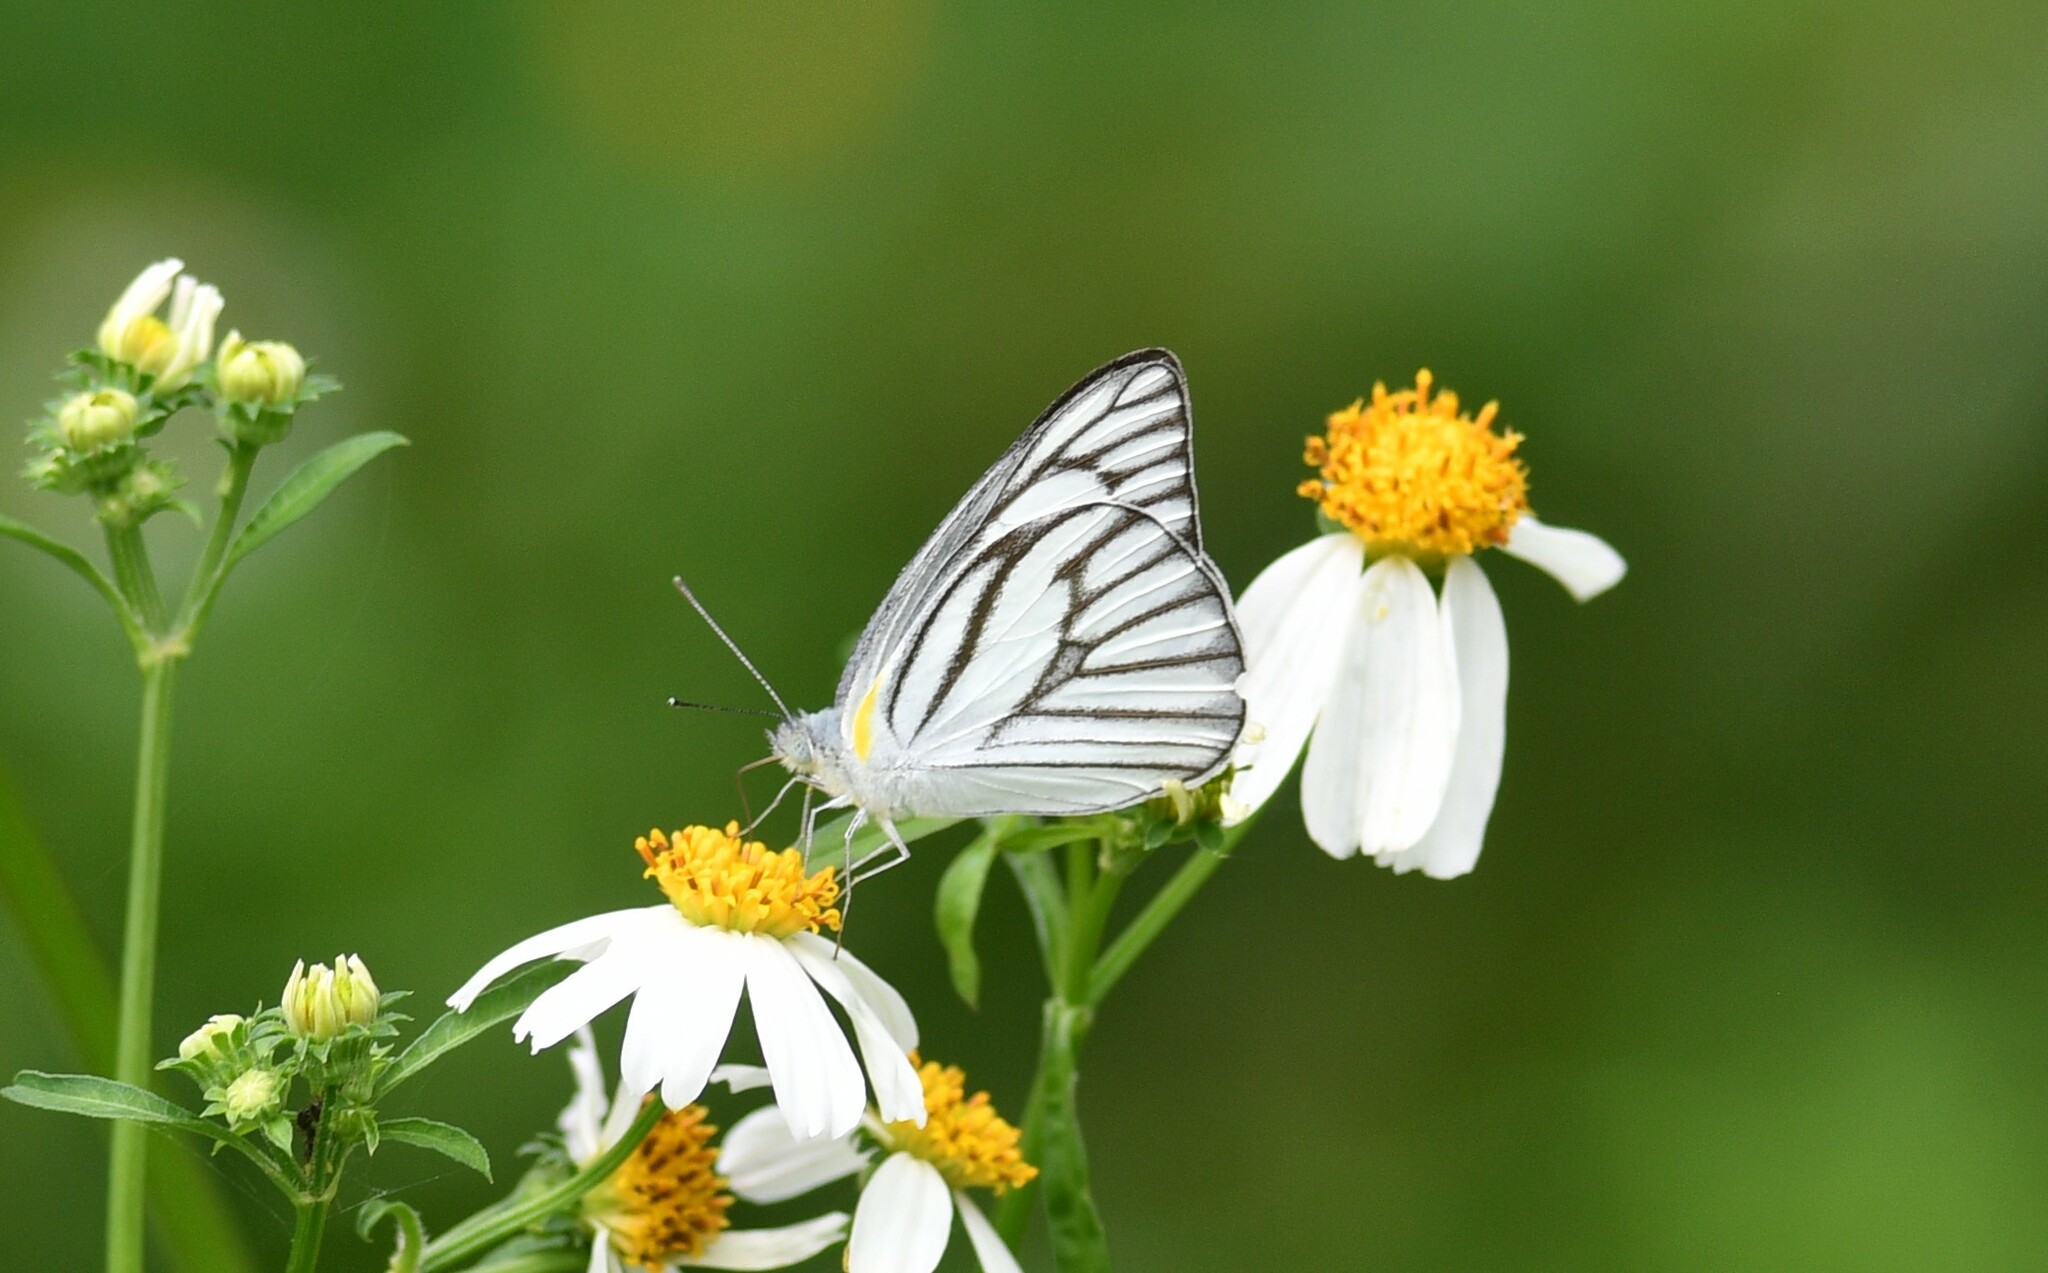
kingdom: Animalia
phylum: Arthropoda
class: Insecta
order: Lepidoptera
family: Pieridae
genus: Appias
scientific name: Appias libythea
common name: Striped albatross
